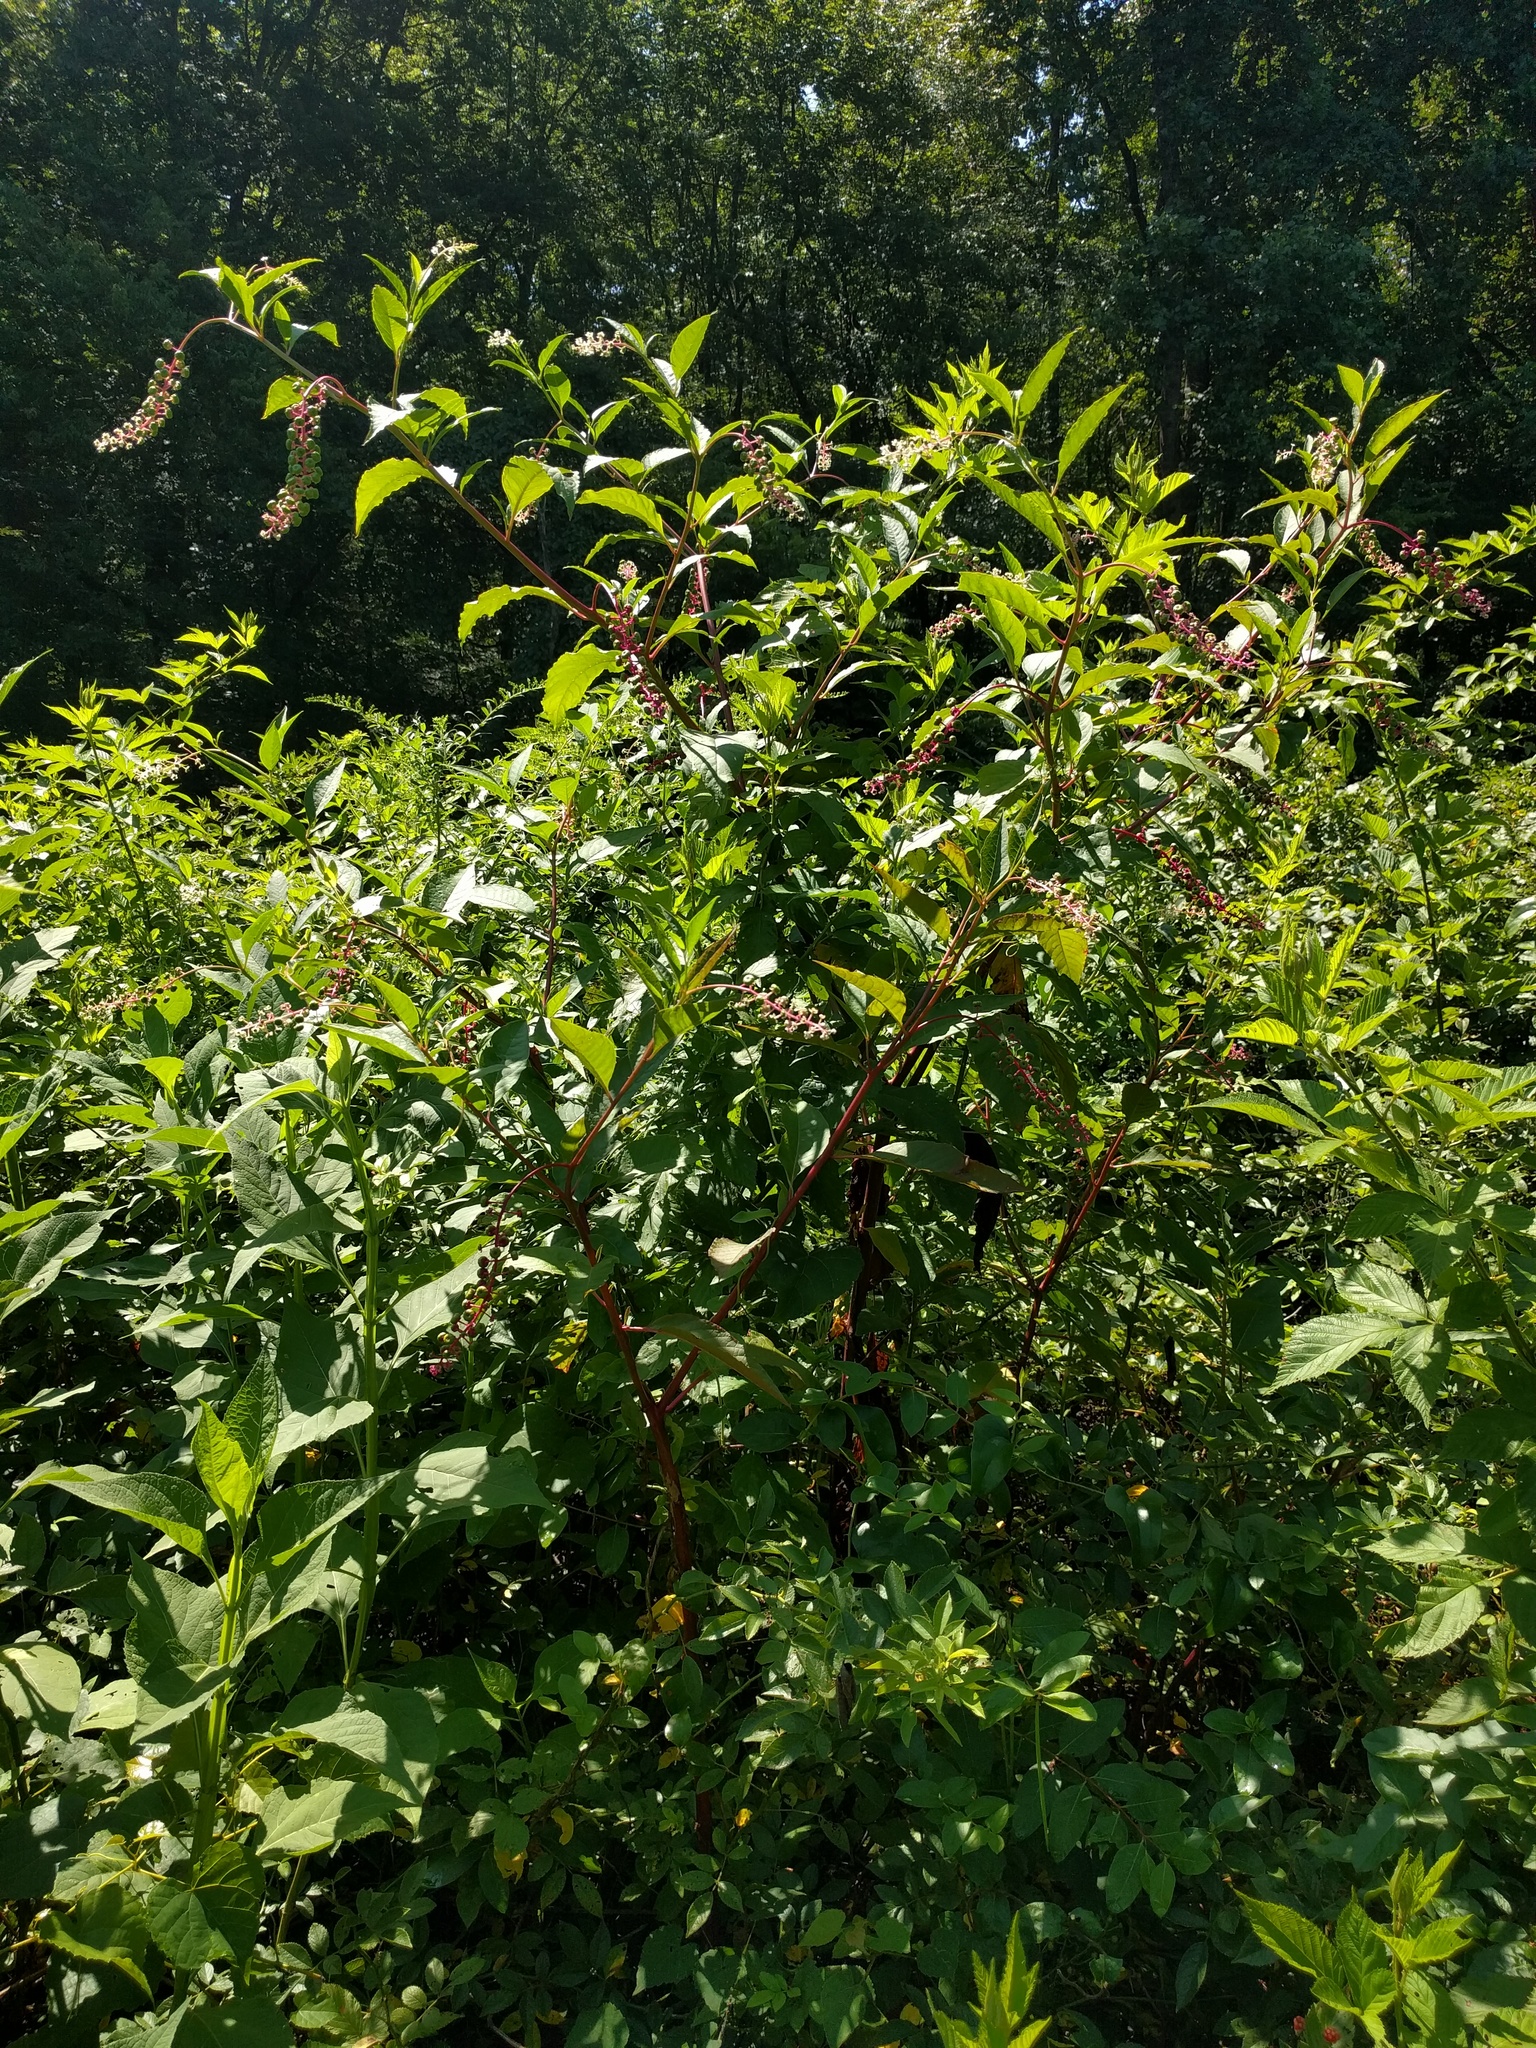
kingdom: Plantae
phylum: Tracheophyta
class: Magnoliopsida
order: Caryophyllales
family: Phytolaccaceae
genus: Phytolacca
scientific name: Phytolacca americana
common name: American pokeweed
